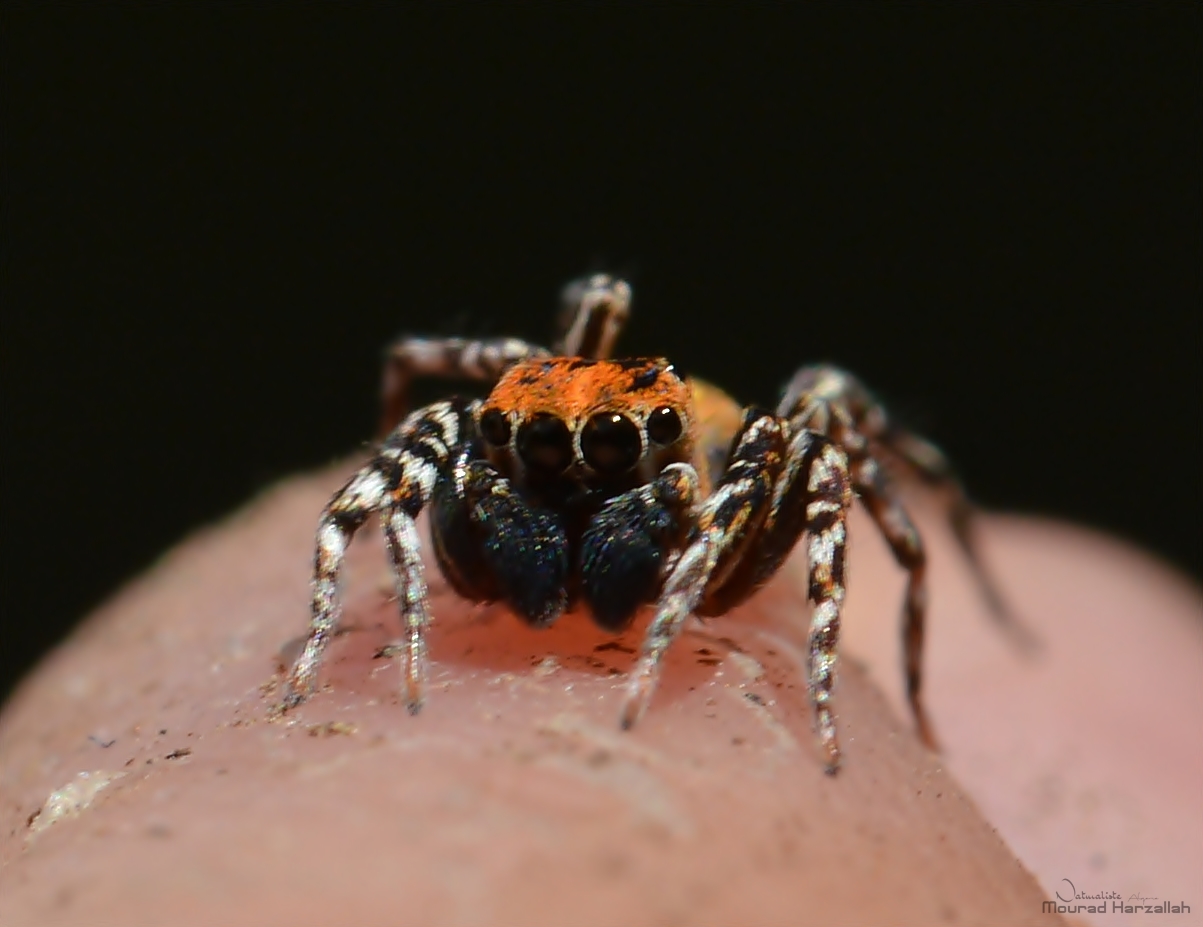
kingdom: Animalia
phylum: Arthropoda
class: Arachnida
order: Araneae
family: Salticidae
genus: Cyrba
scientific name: Cyrba algerina
